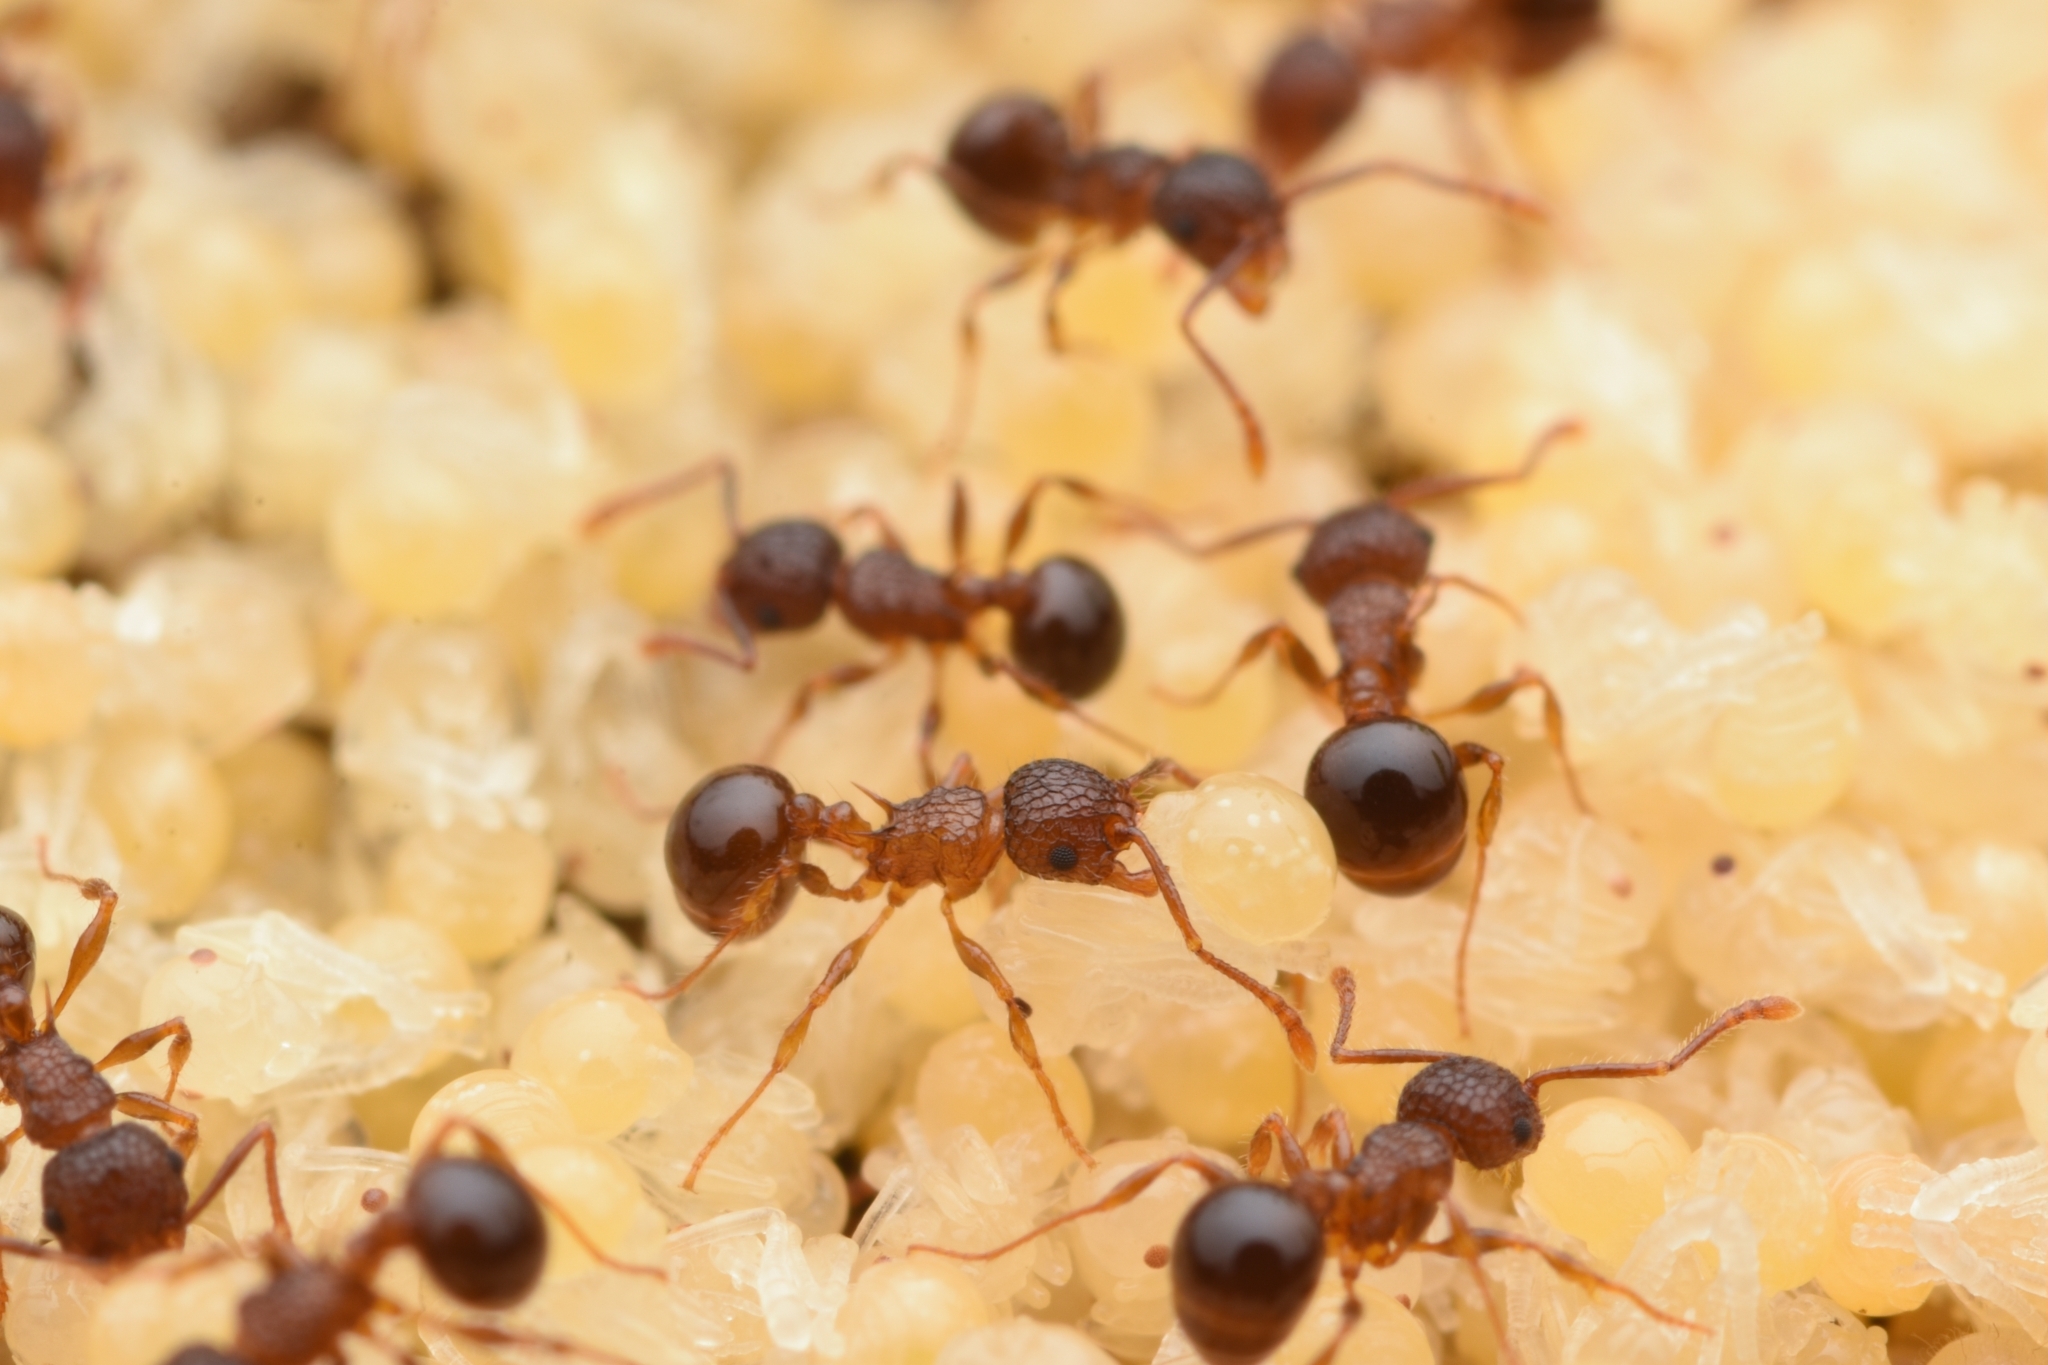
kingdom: Animalia
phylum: Arthropoda
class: Insecta
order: Hymenoptera
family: Formicidae
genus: Pristomyrmex
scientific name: Pristomyrmex punctatus
